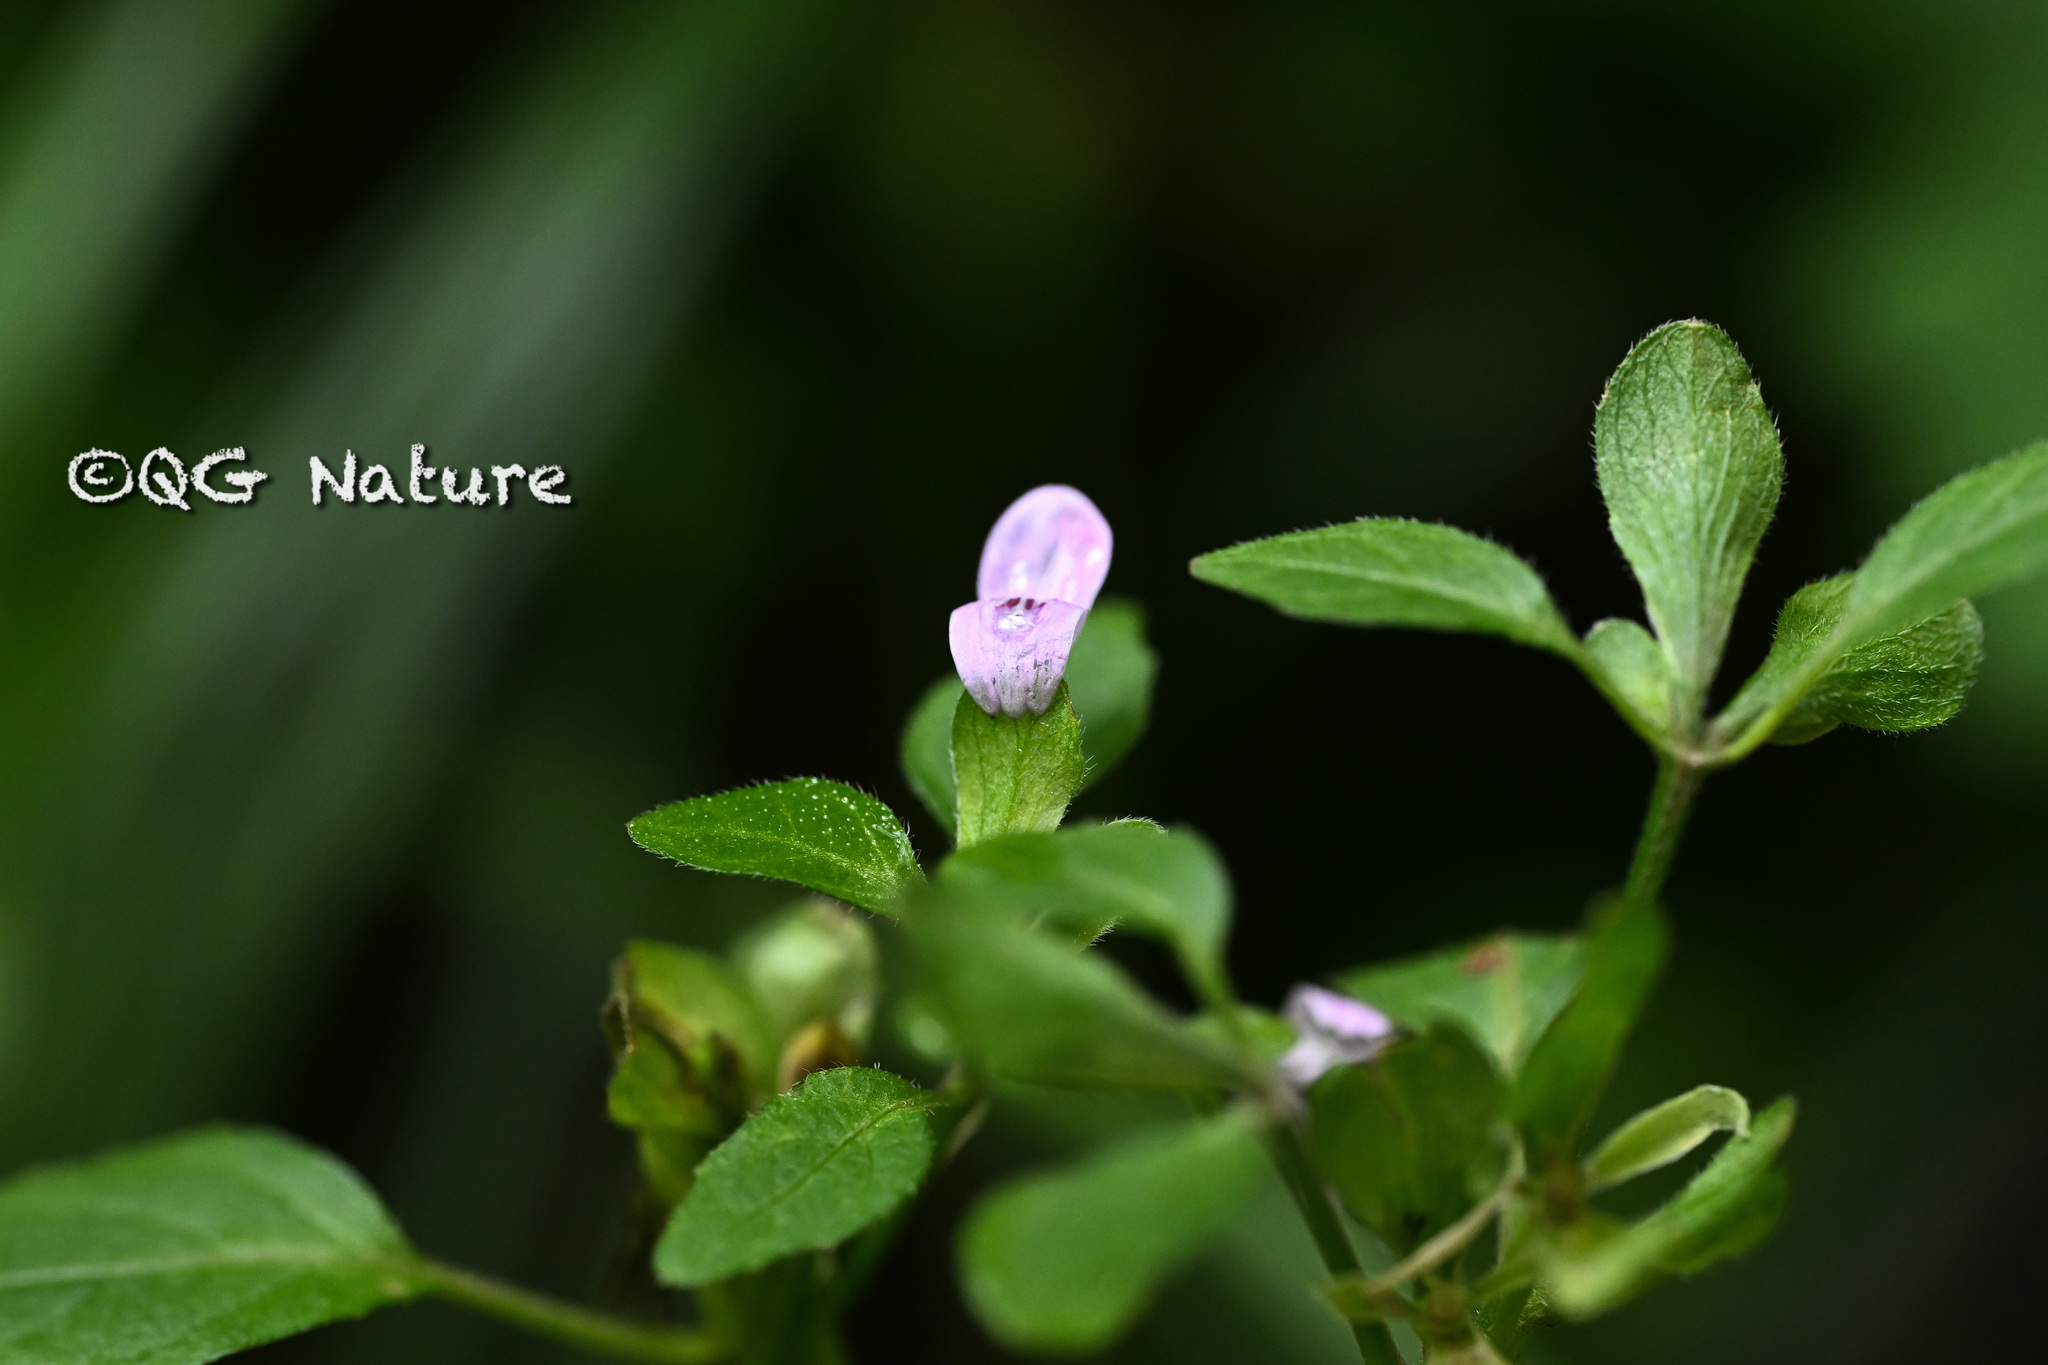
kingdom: Plantae
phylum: Tracheophyta
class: Magnoliopsida
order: Lamiales
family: Acanthaceae
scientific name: Acanthaceae
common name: Acanthaceae
